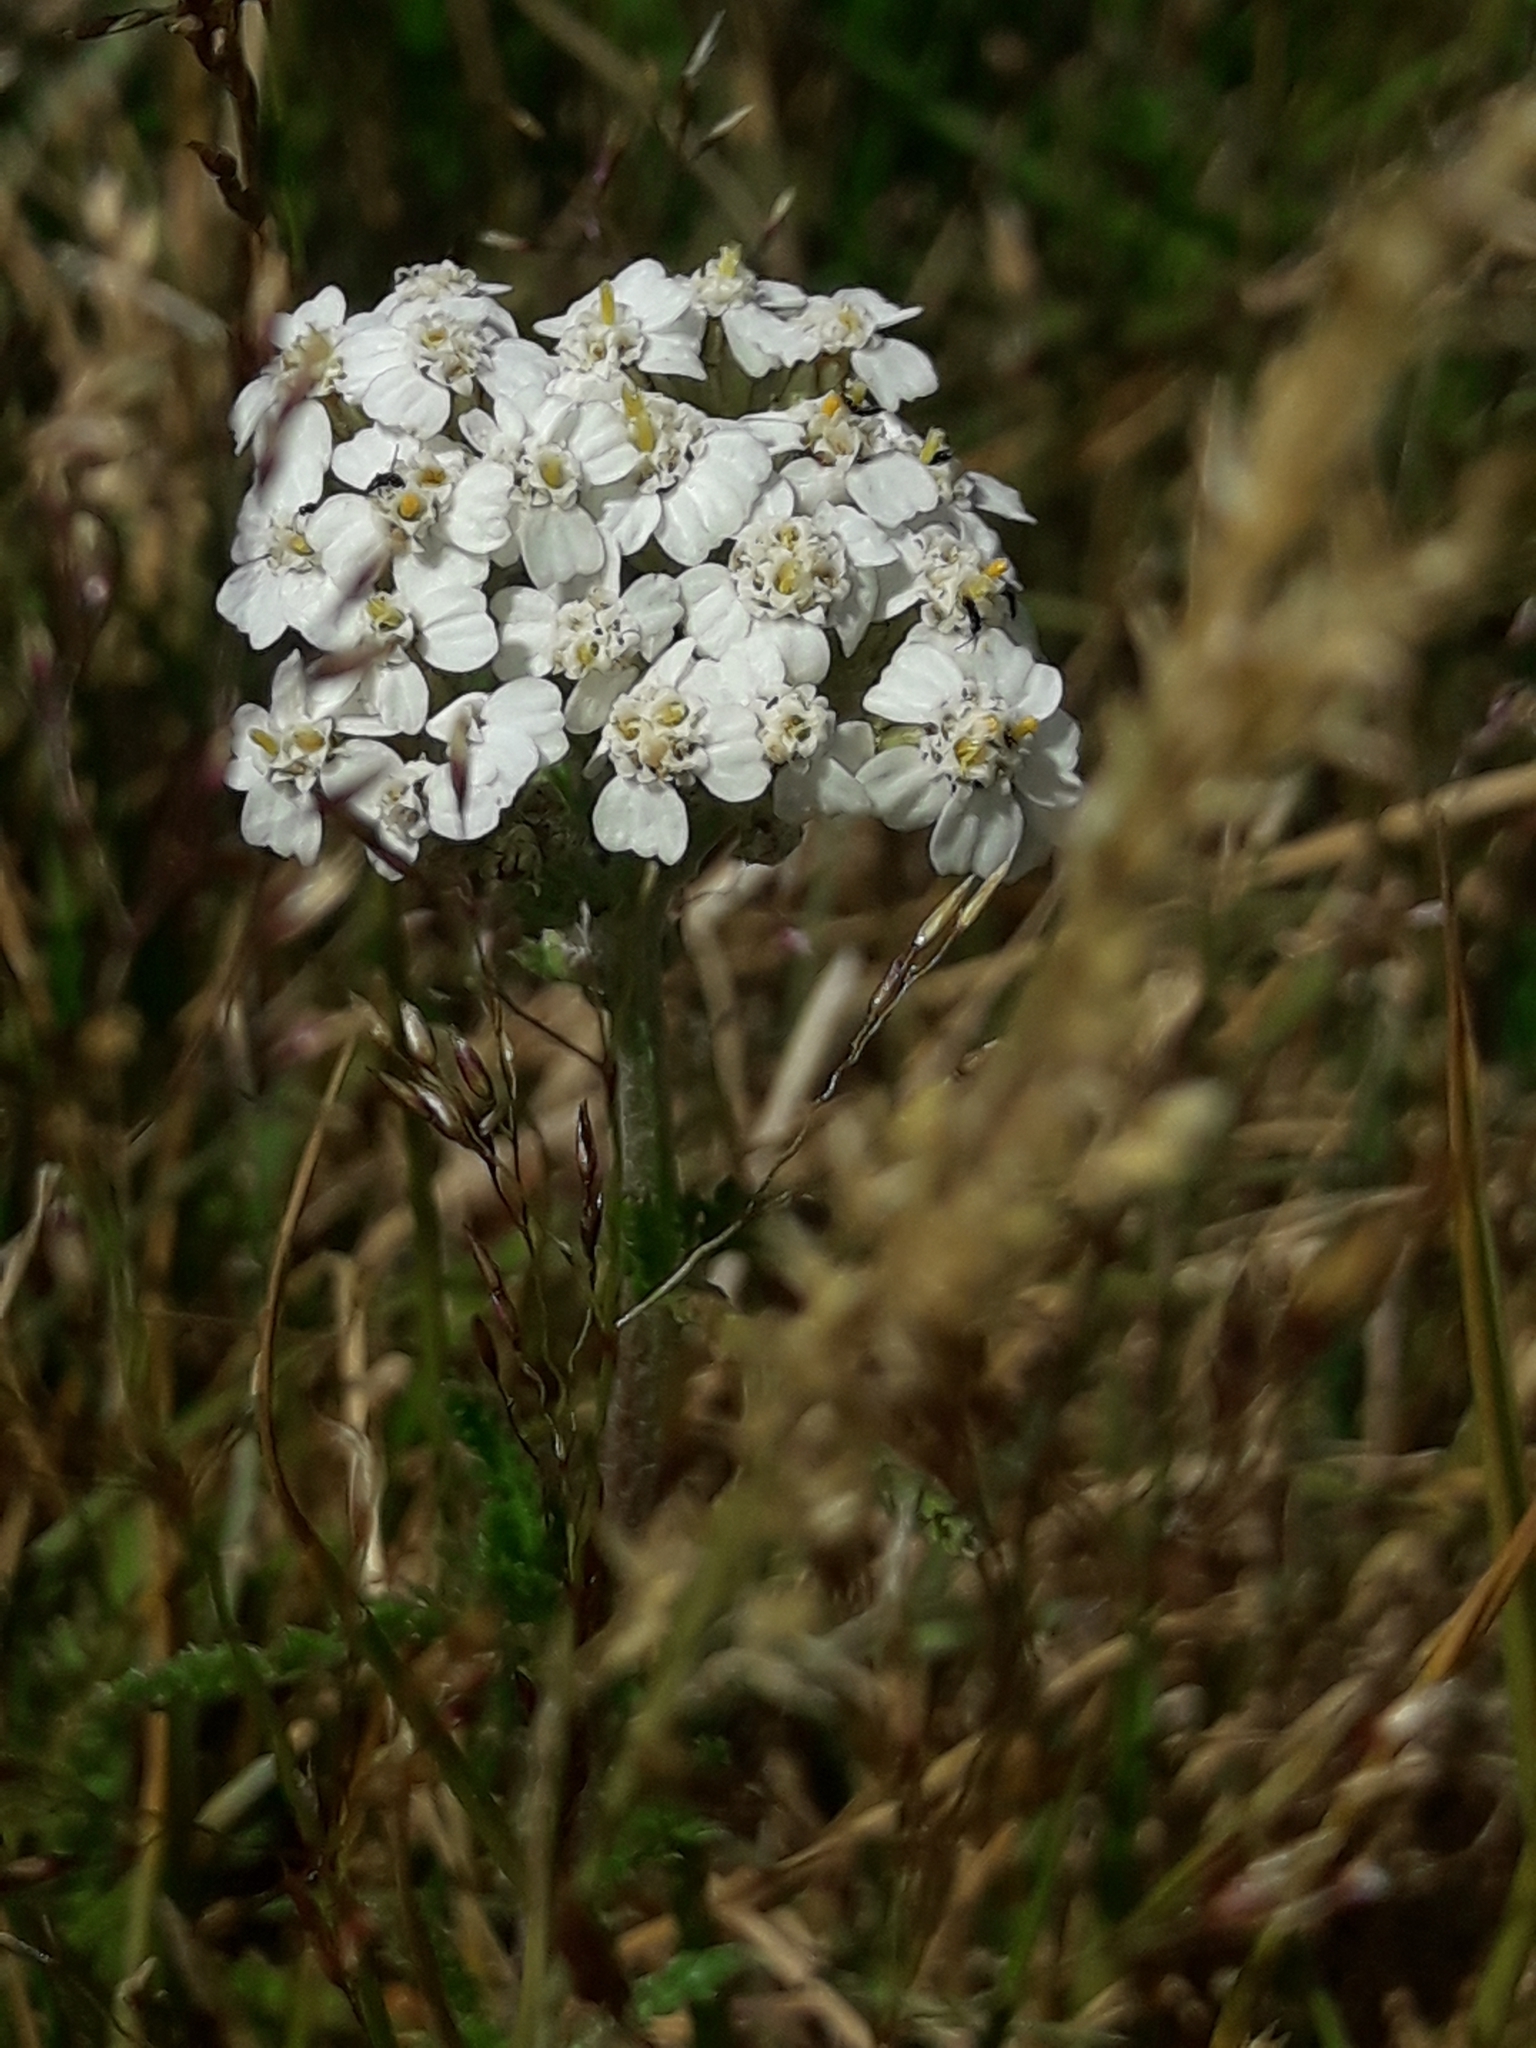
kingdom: Plantae
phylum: Tracheophyta
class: Magnoliopsida
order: Asterales
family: Asteraceae
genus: Achillea
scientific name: Achillea millefolium
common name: Yarrow
